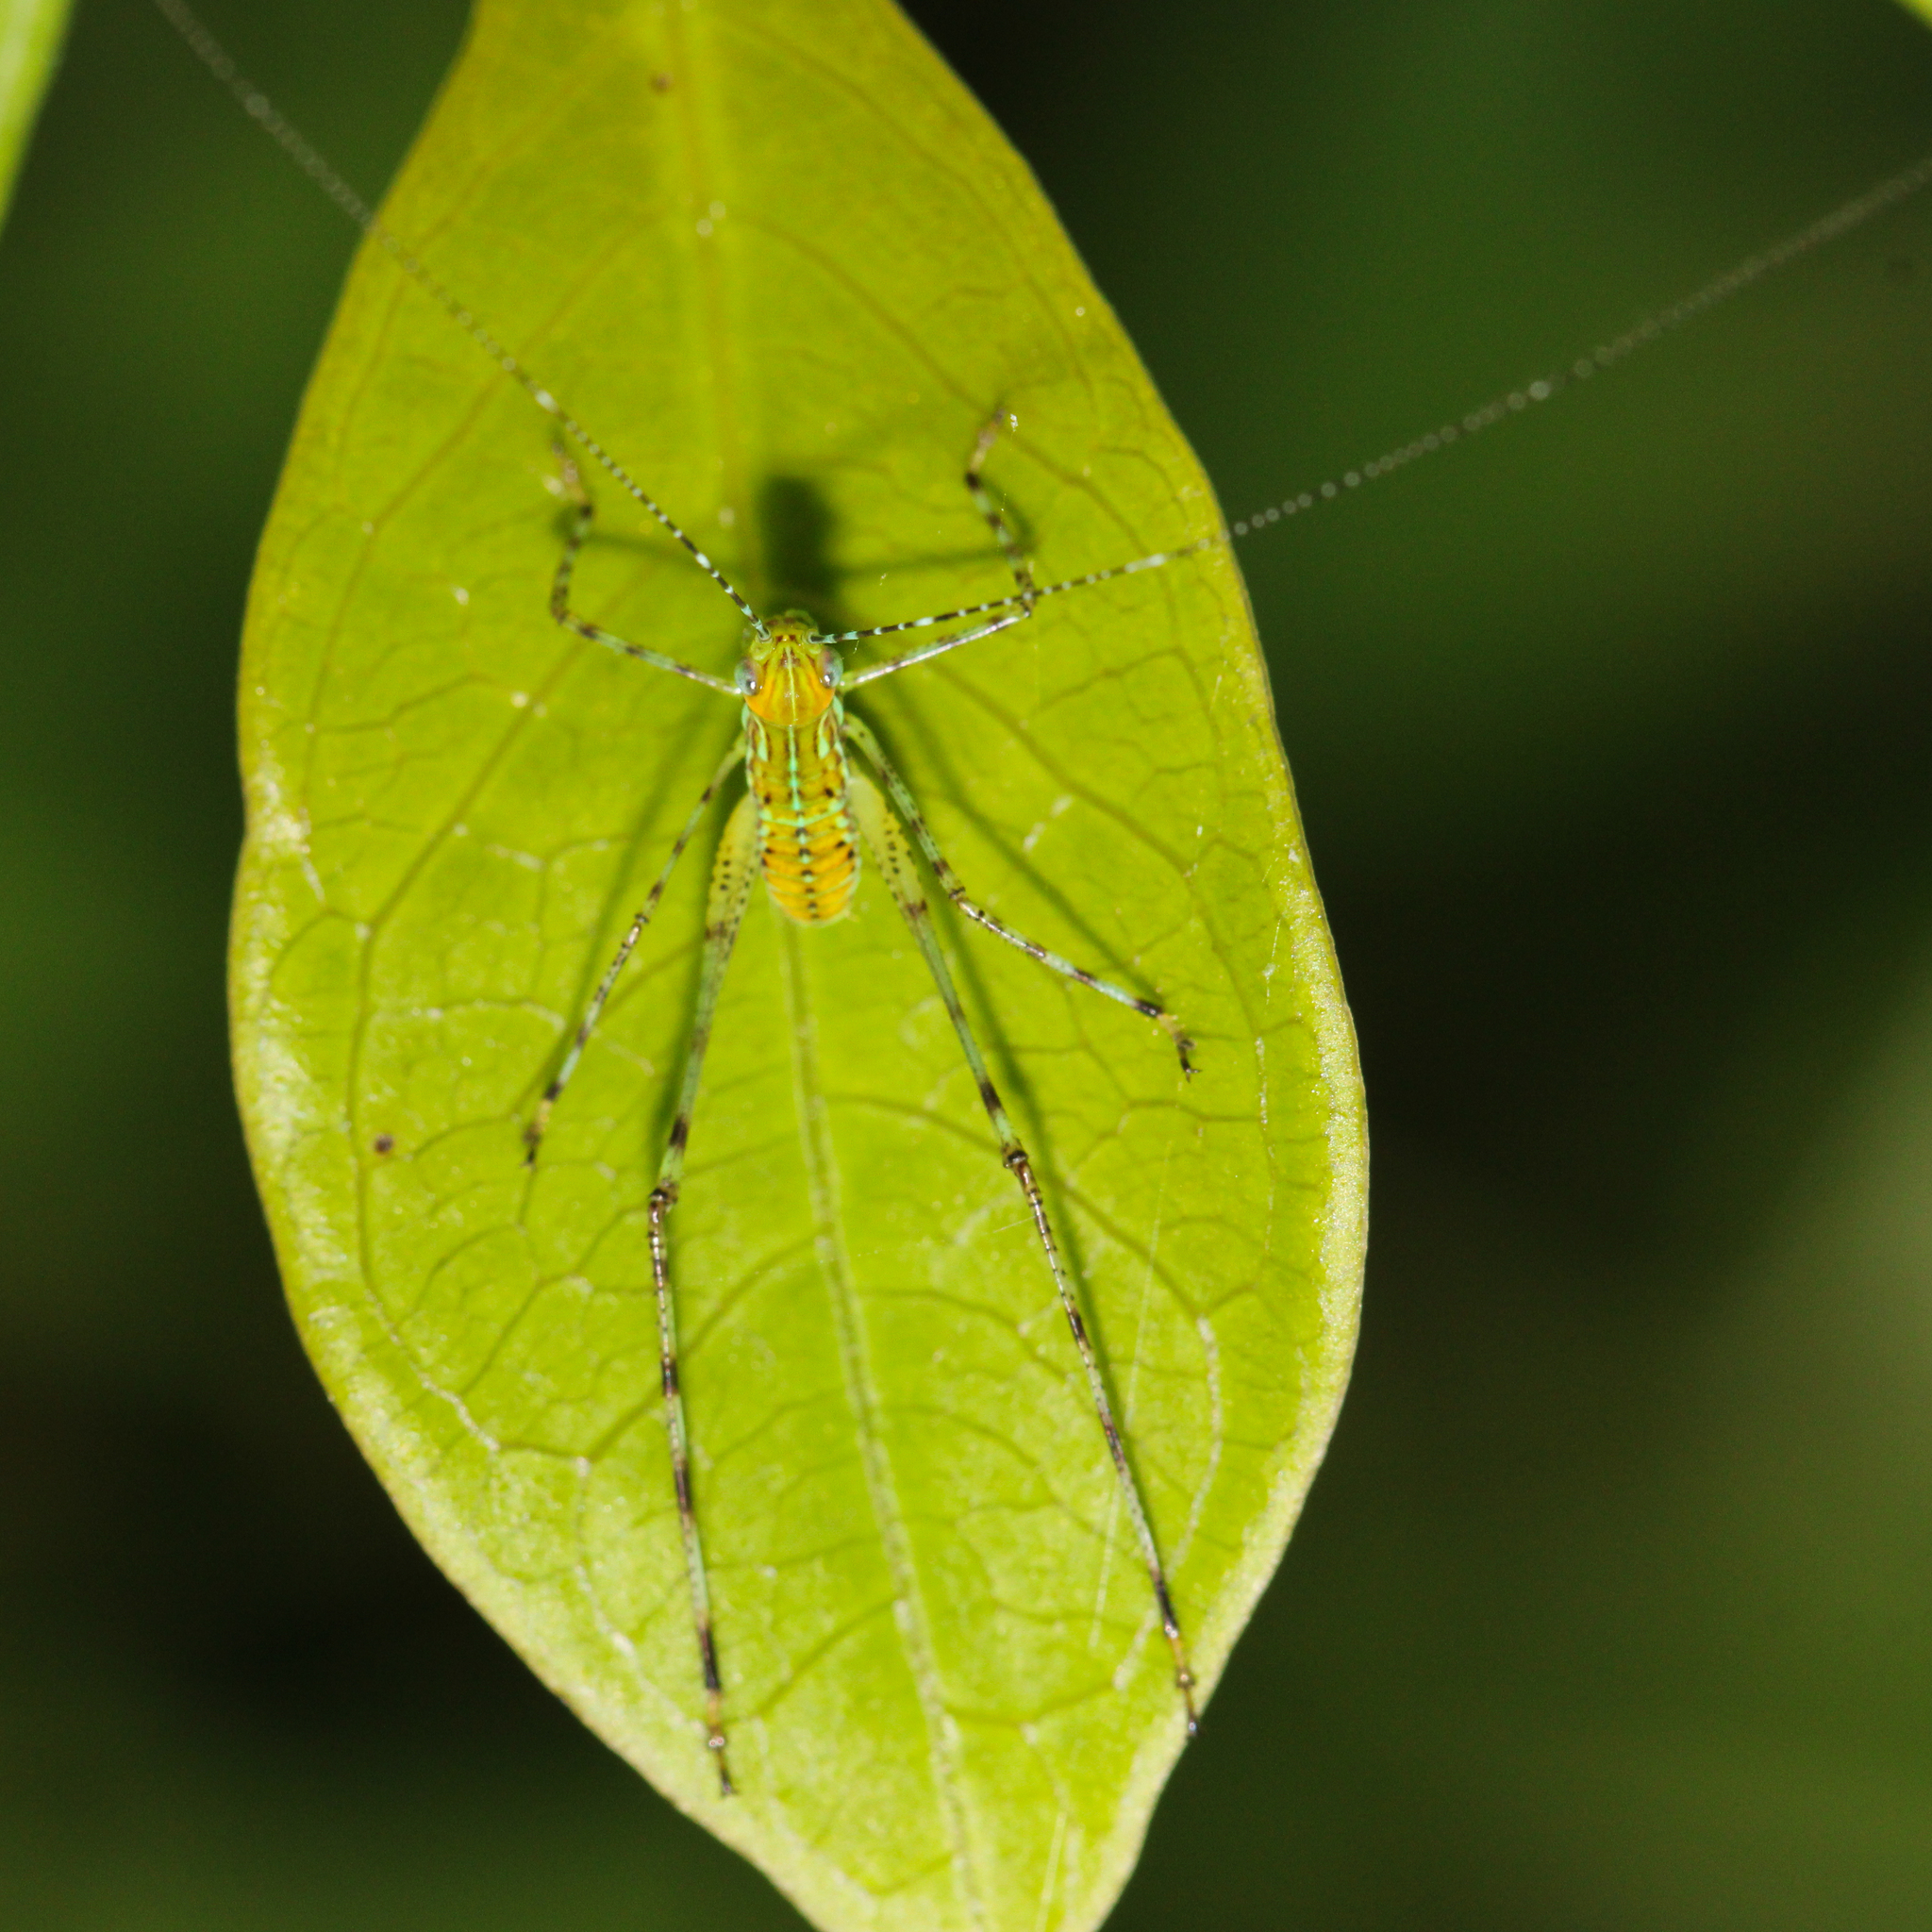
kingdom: Animalia
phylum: Arthropoda
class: Insecta
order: Orthoptera
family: Tettigoniidae
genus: Stilpnochlora
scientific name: Stilpnochlora couloniana
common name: Giant katydid
